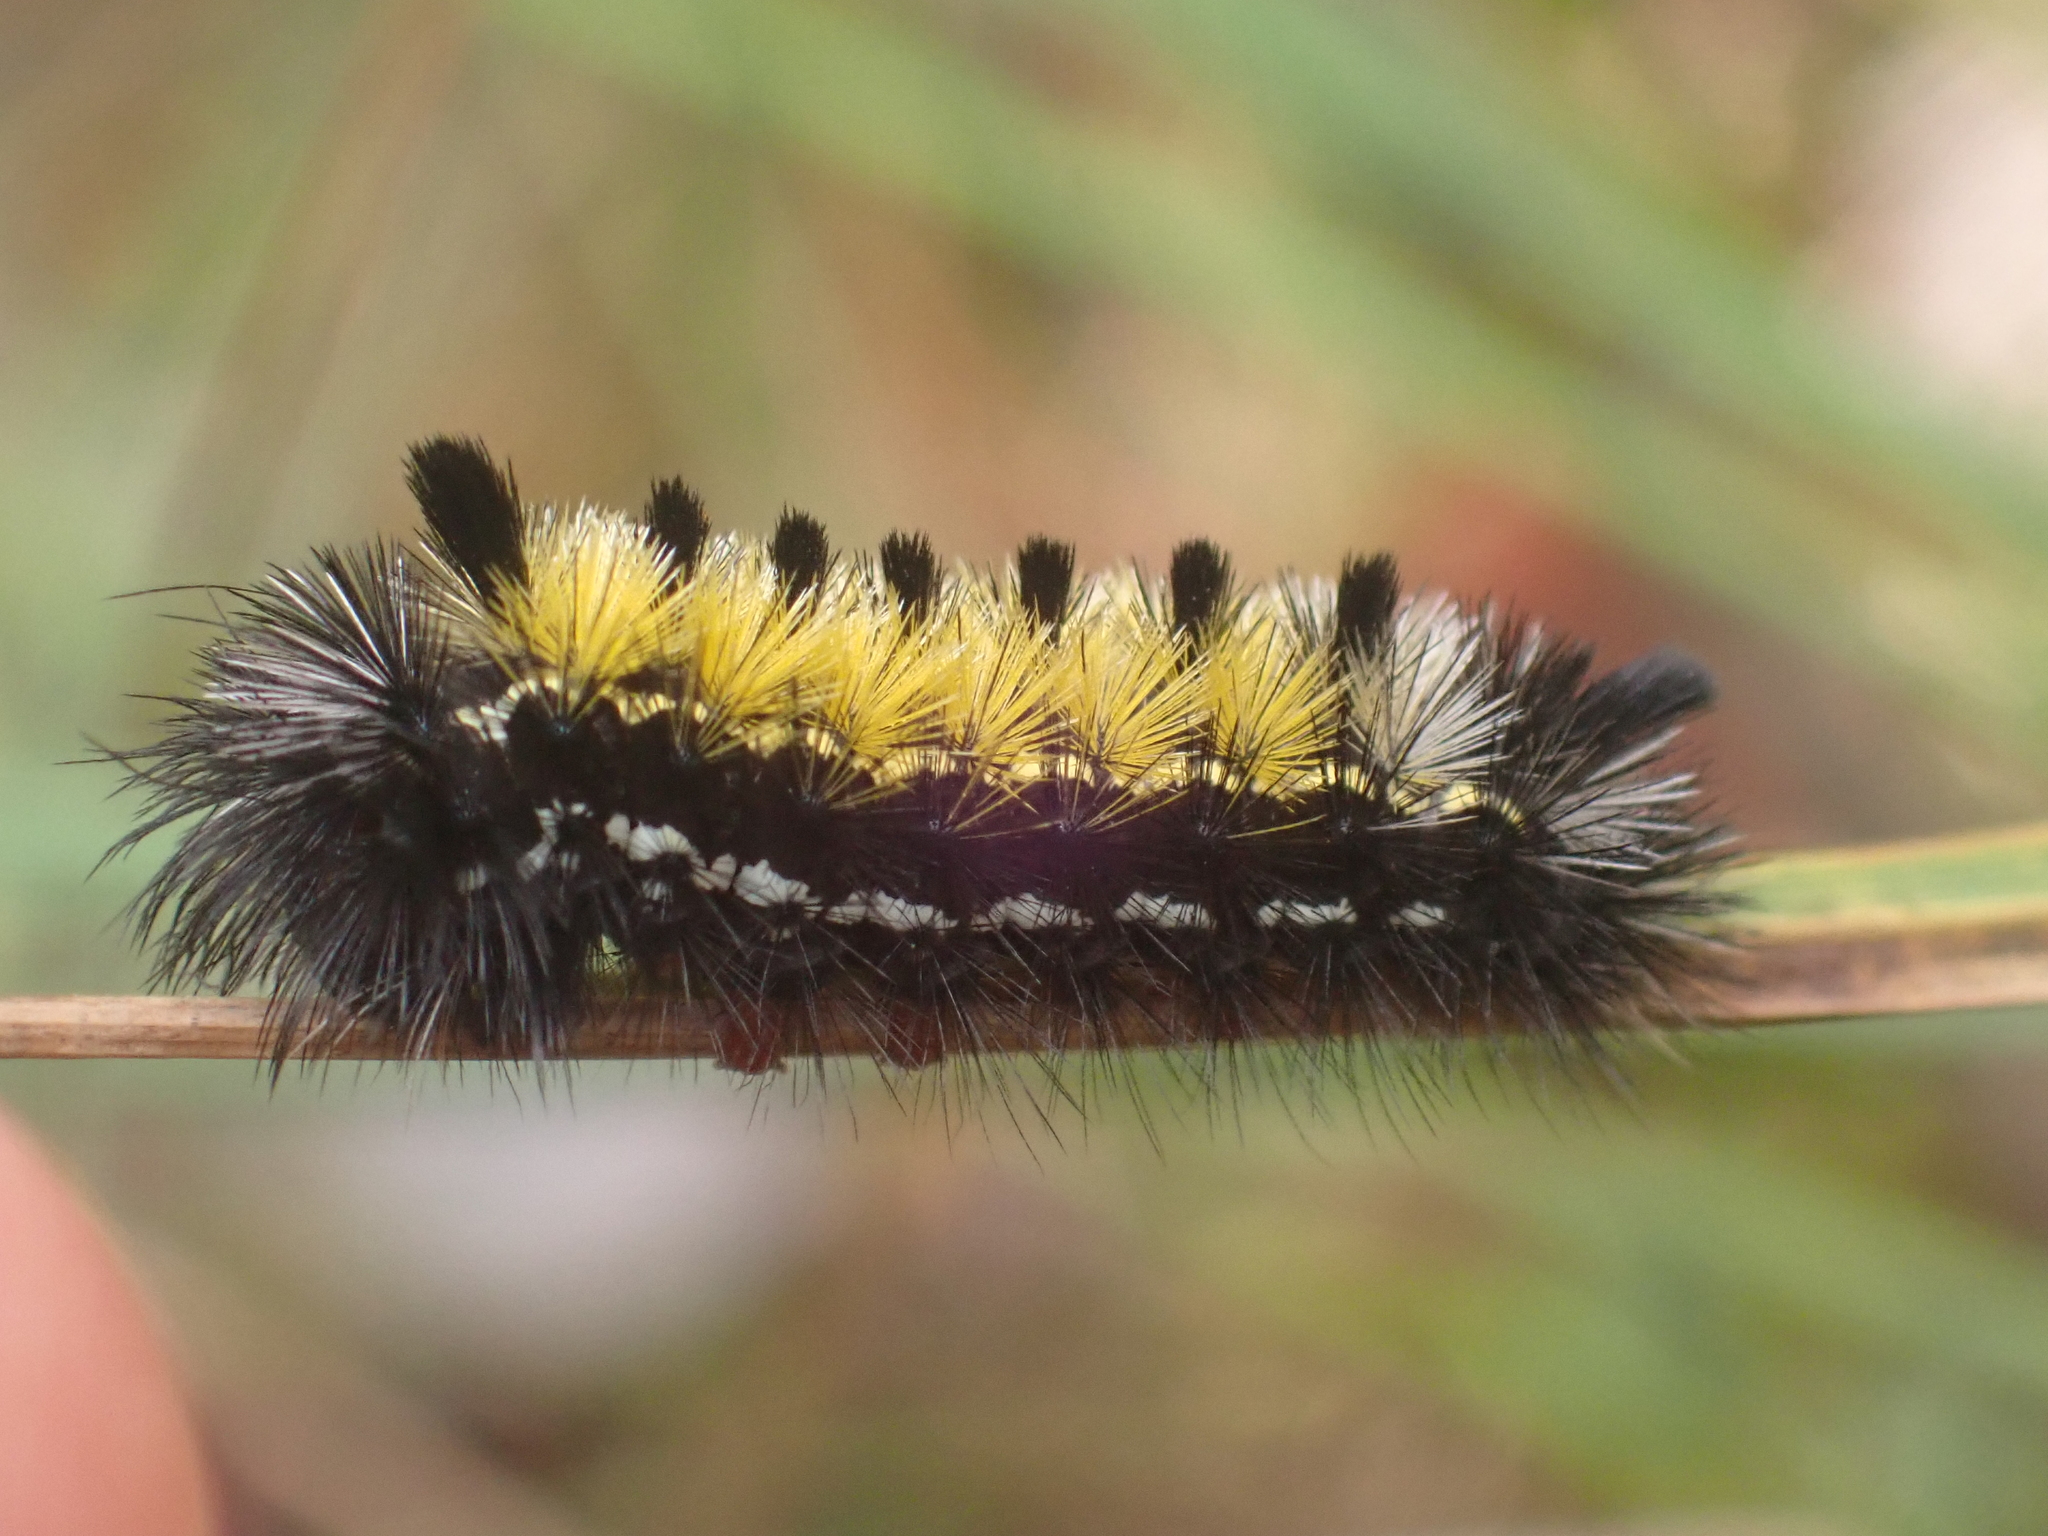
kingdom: Animalia
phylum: Arthropoda
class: Insecta
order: Lepidoptera
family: Erebidae
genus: Ctenucha
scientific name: Ctenucha virginica
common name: Virginia ctenucha moth
